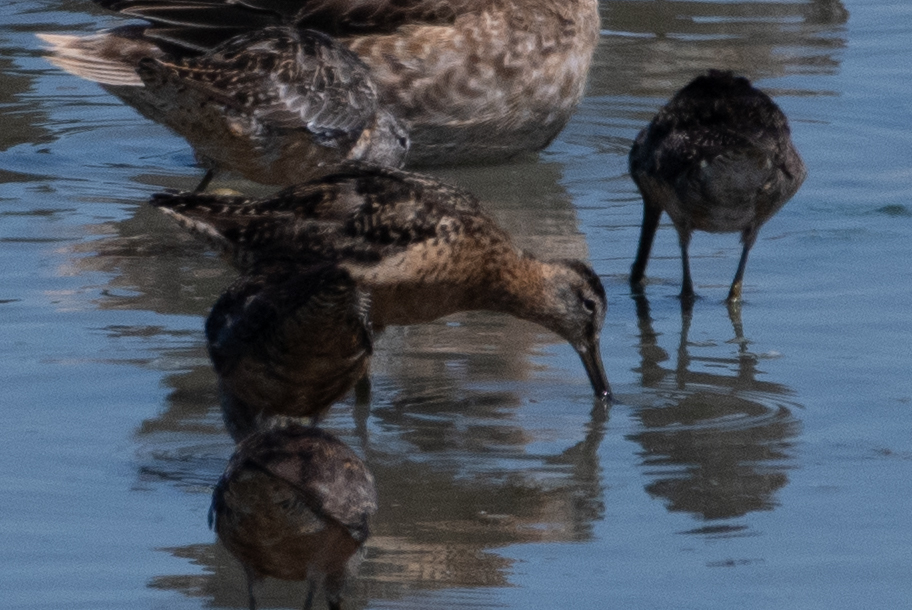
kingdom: Animalia
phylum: Chordata
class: Aves
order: Charadriiformes
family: Scolopacidae
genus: Limnodromus
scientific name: Limnodromus scolopaceus
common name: Long-billed dowitcher
